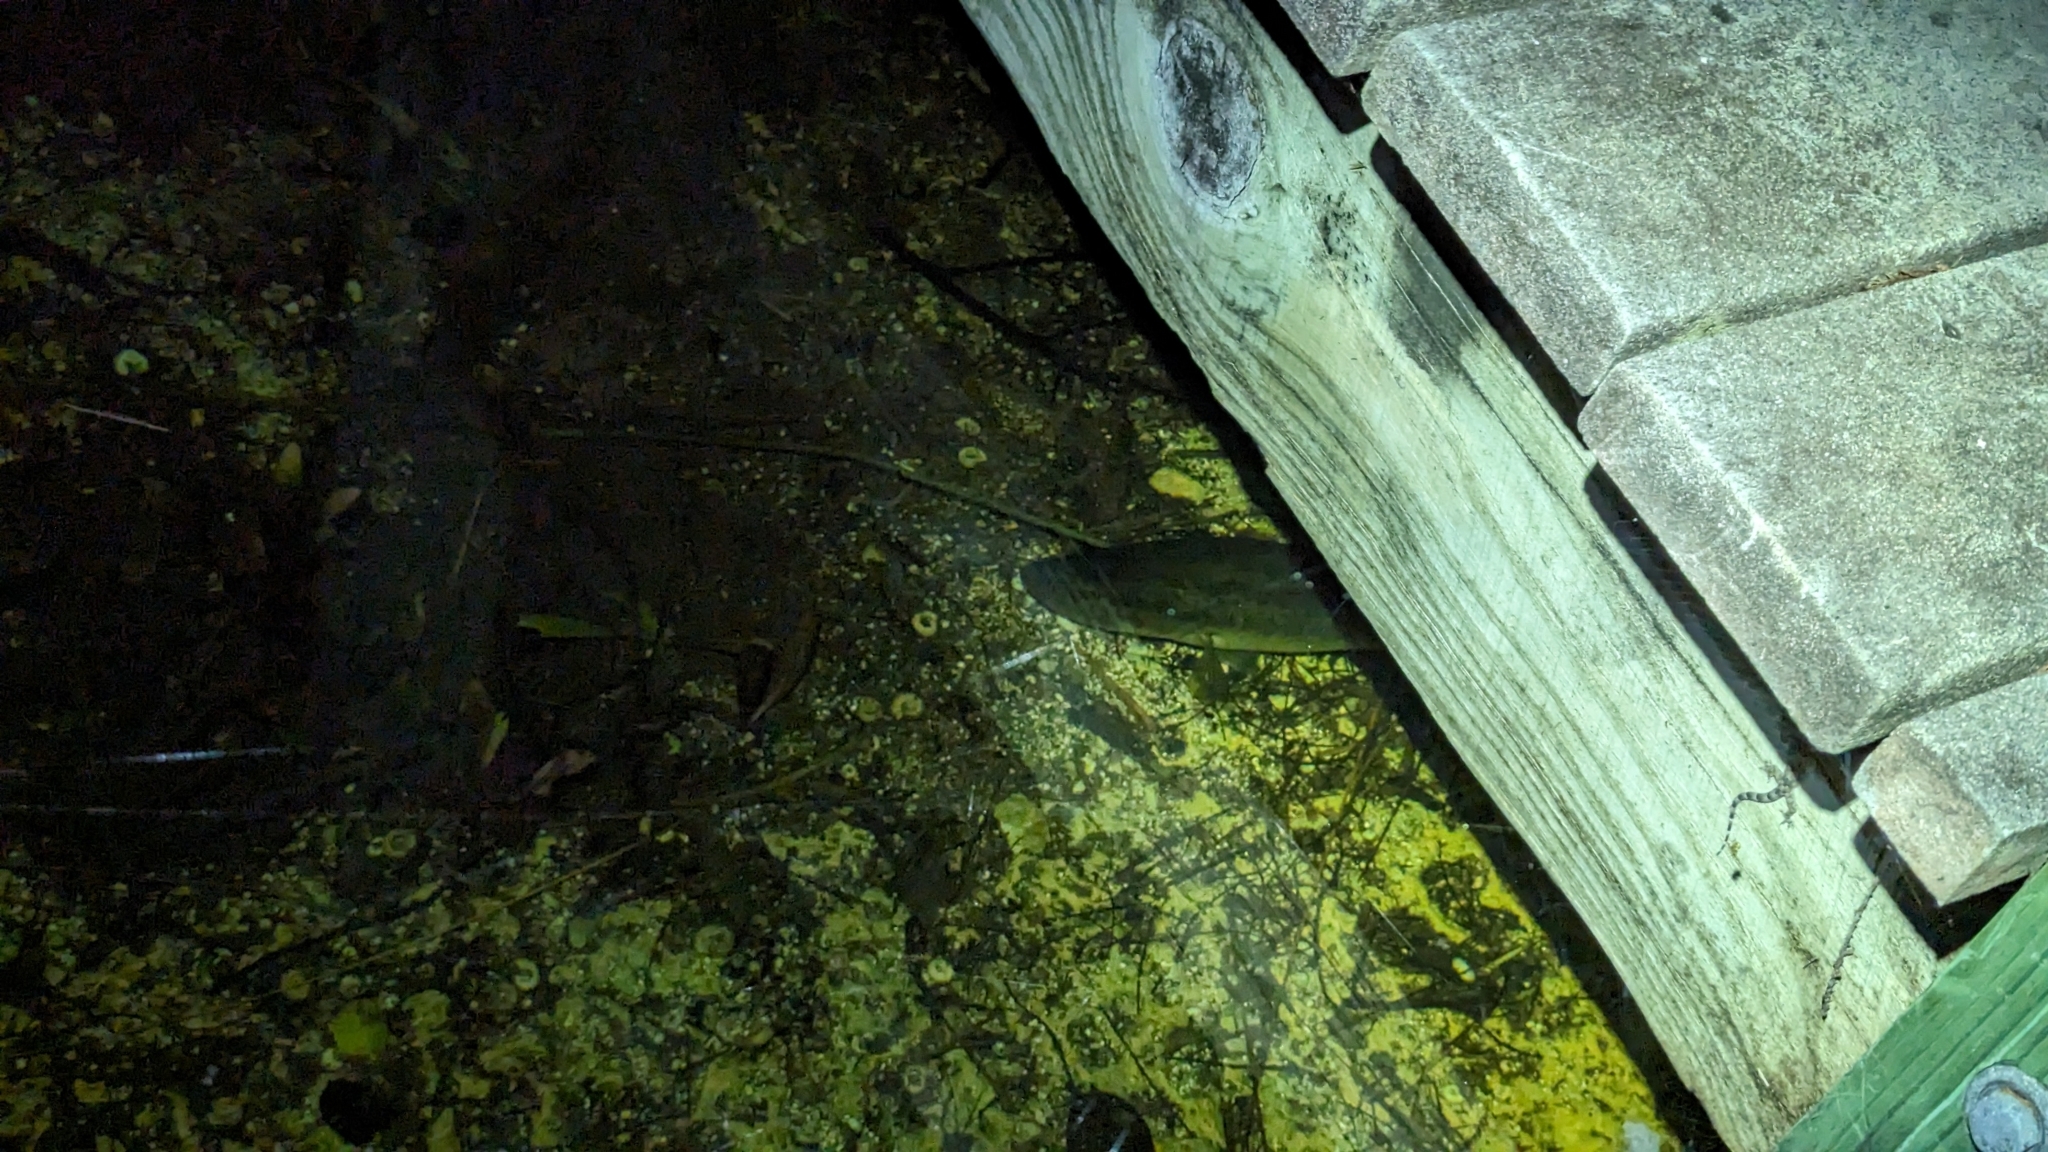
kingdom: Animalia
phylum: Chordata
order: Perciformes
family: Centrarchidae
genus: Micropterus
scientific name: Micropterus salmoides
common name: Largemouth bass
